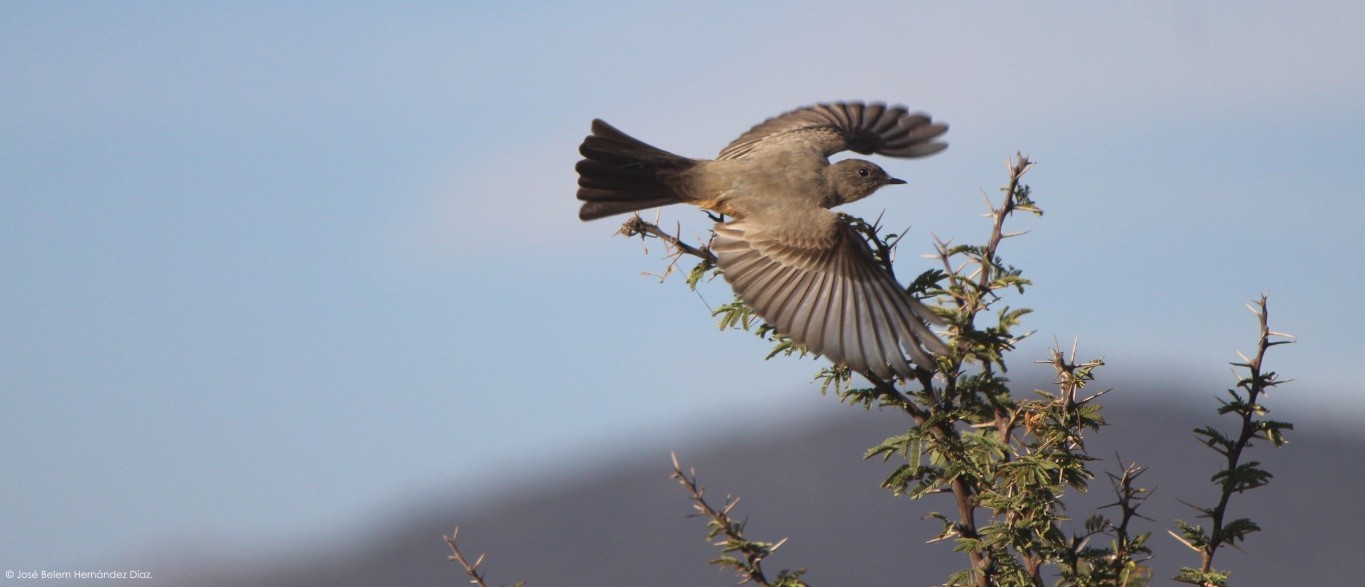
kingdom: Animalia
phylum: Chordata
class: Aves
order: Passeriformes
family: Tyrannidae
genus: Sayornis
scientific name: Sayornis saya
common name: Say's phoebe
